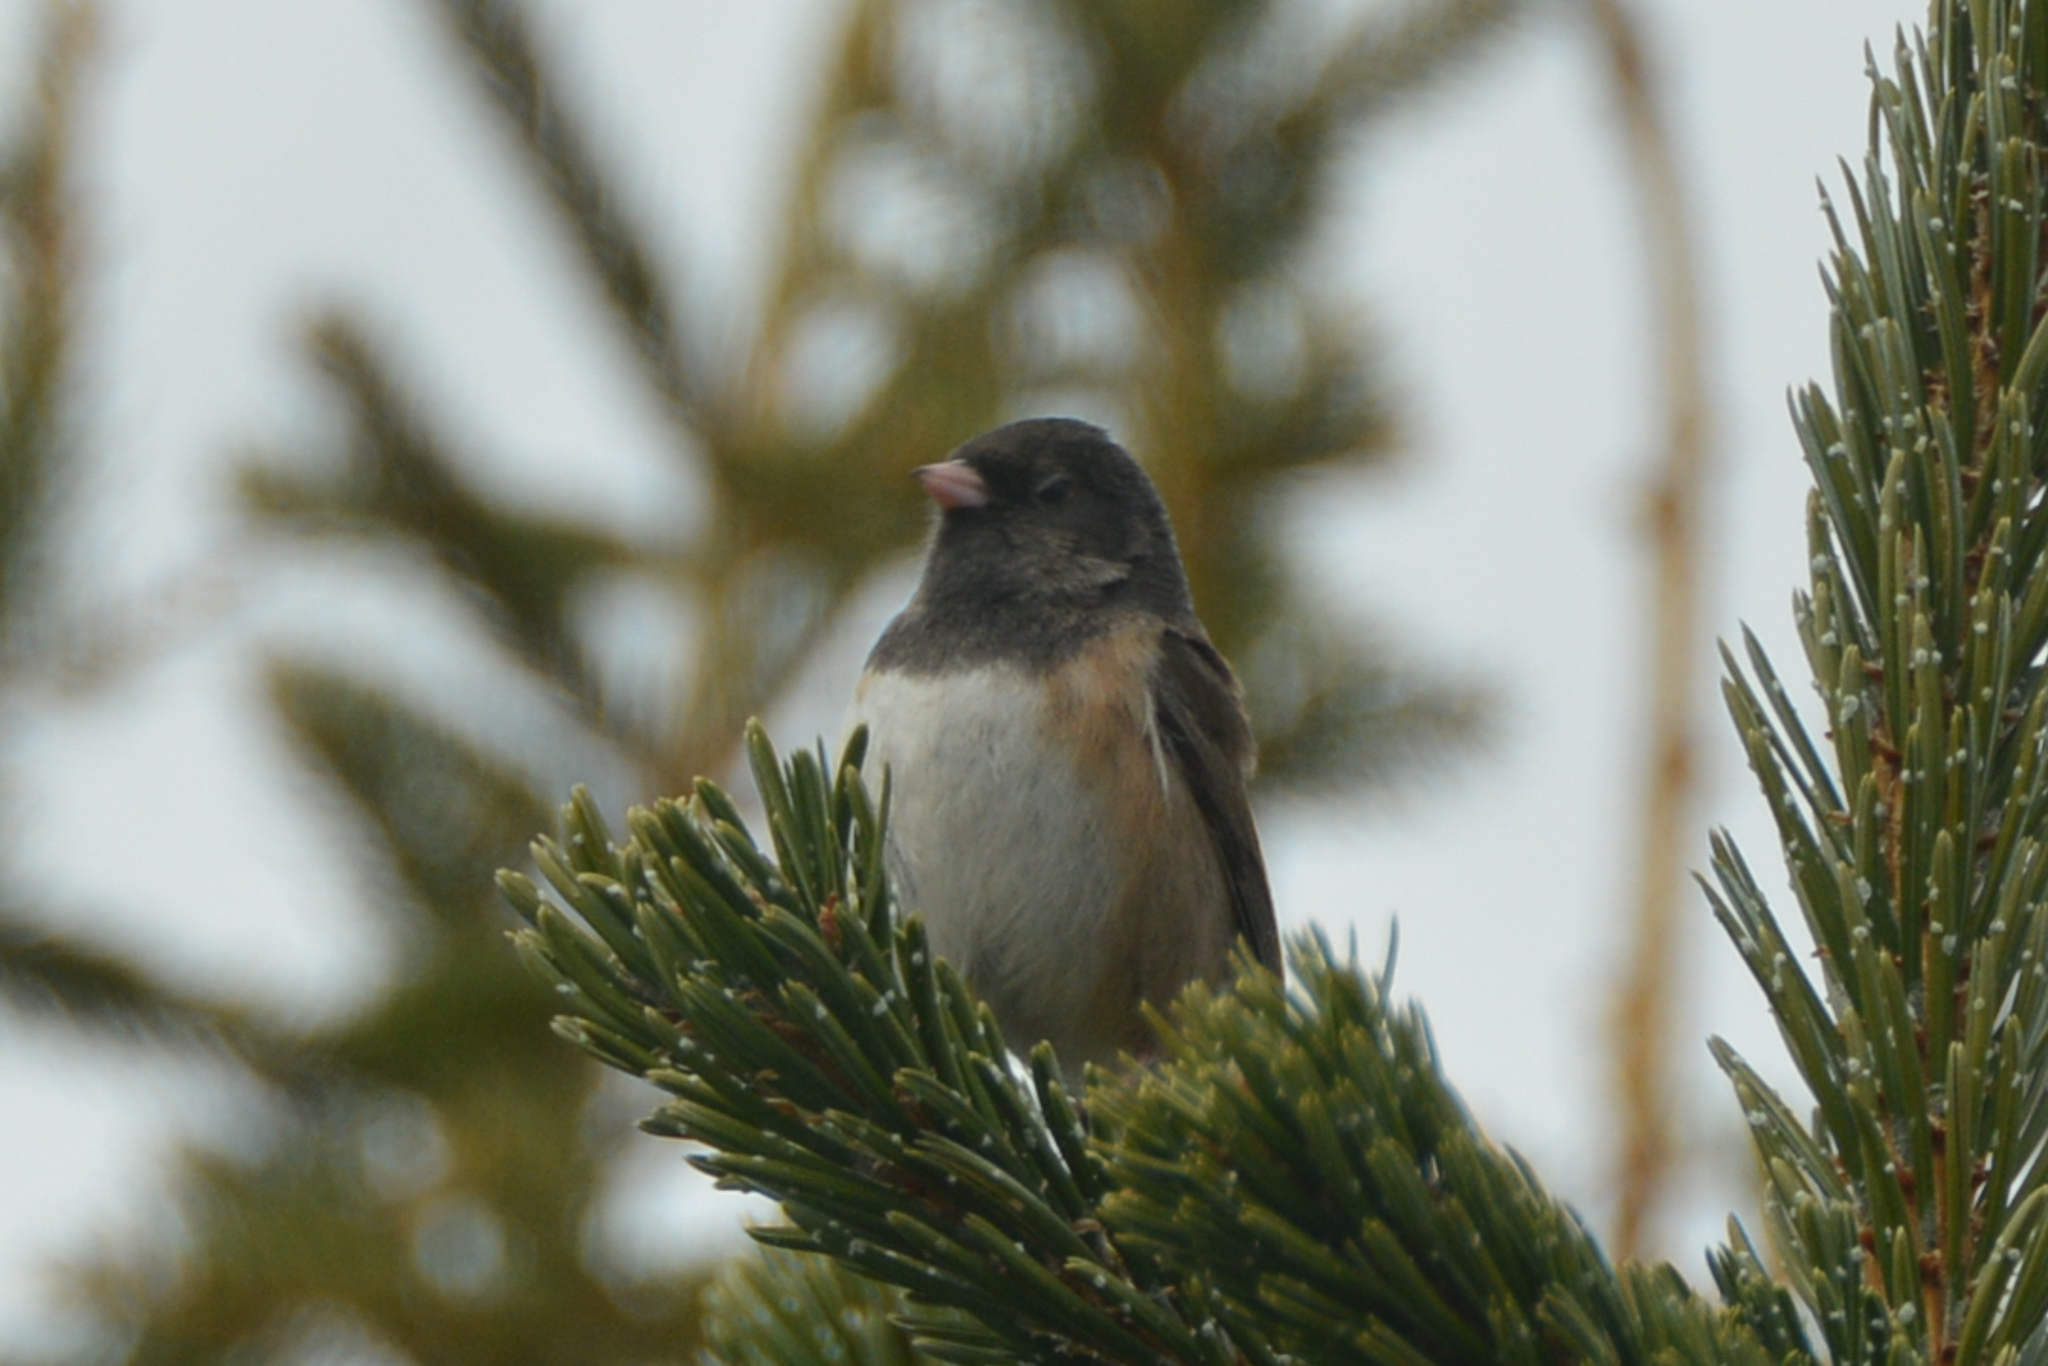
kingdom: Animalia
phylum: Chordata
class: Aves
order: Passeriformes
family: Passerellidae
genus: Junco
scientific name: Junco hyemalis
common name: Dark-eyed junco
